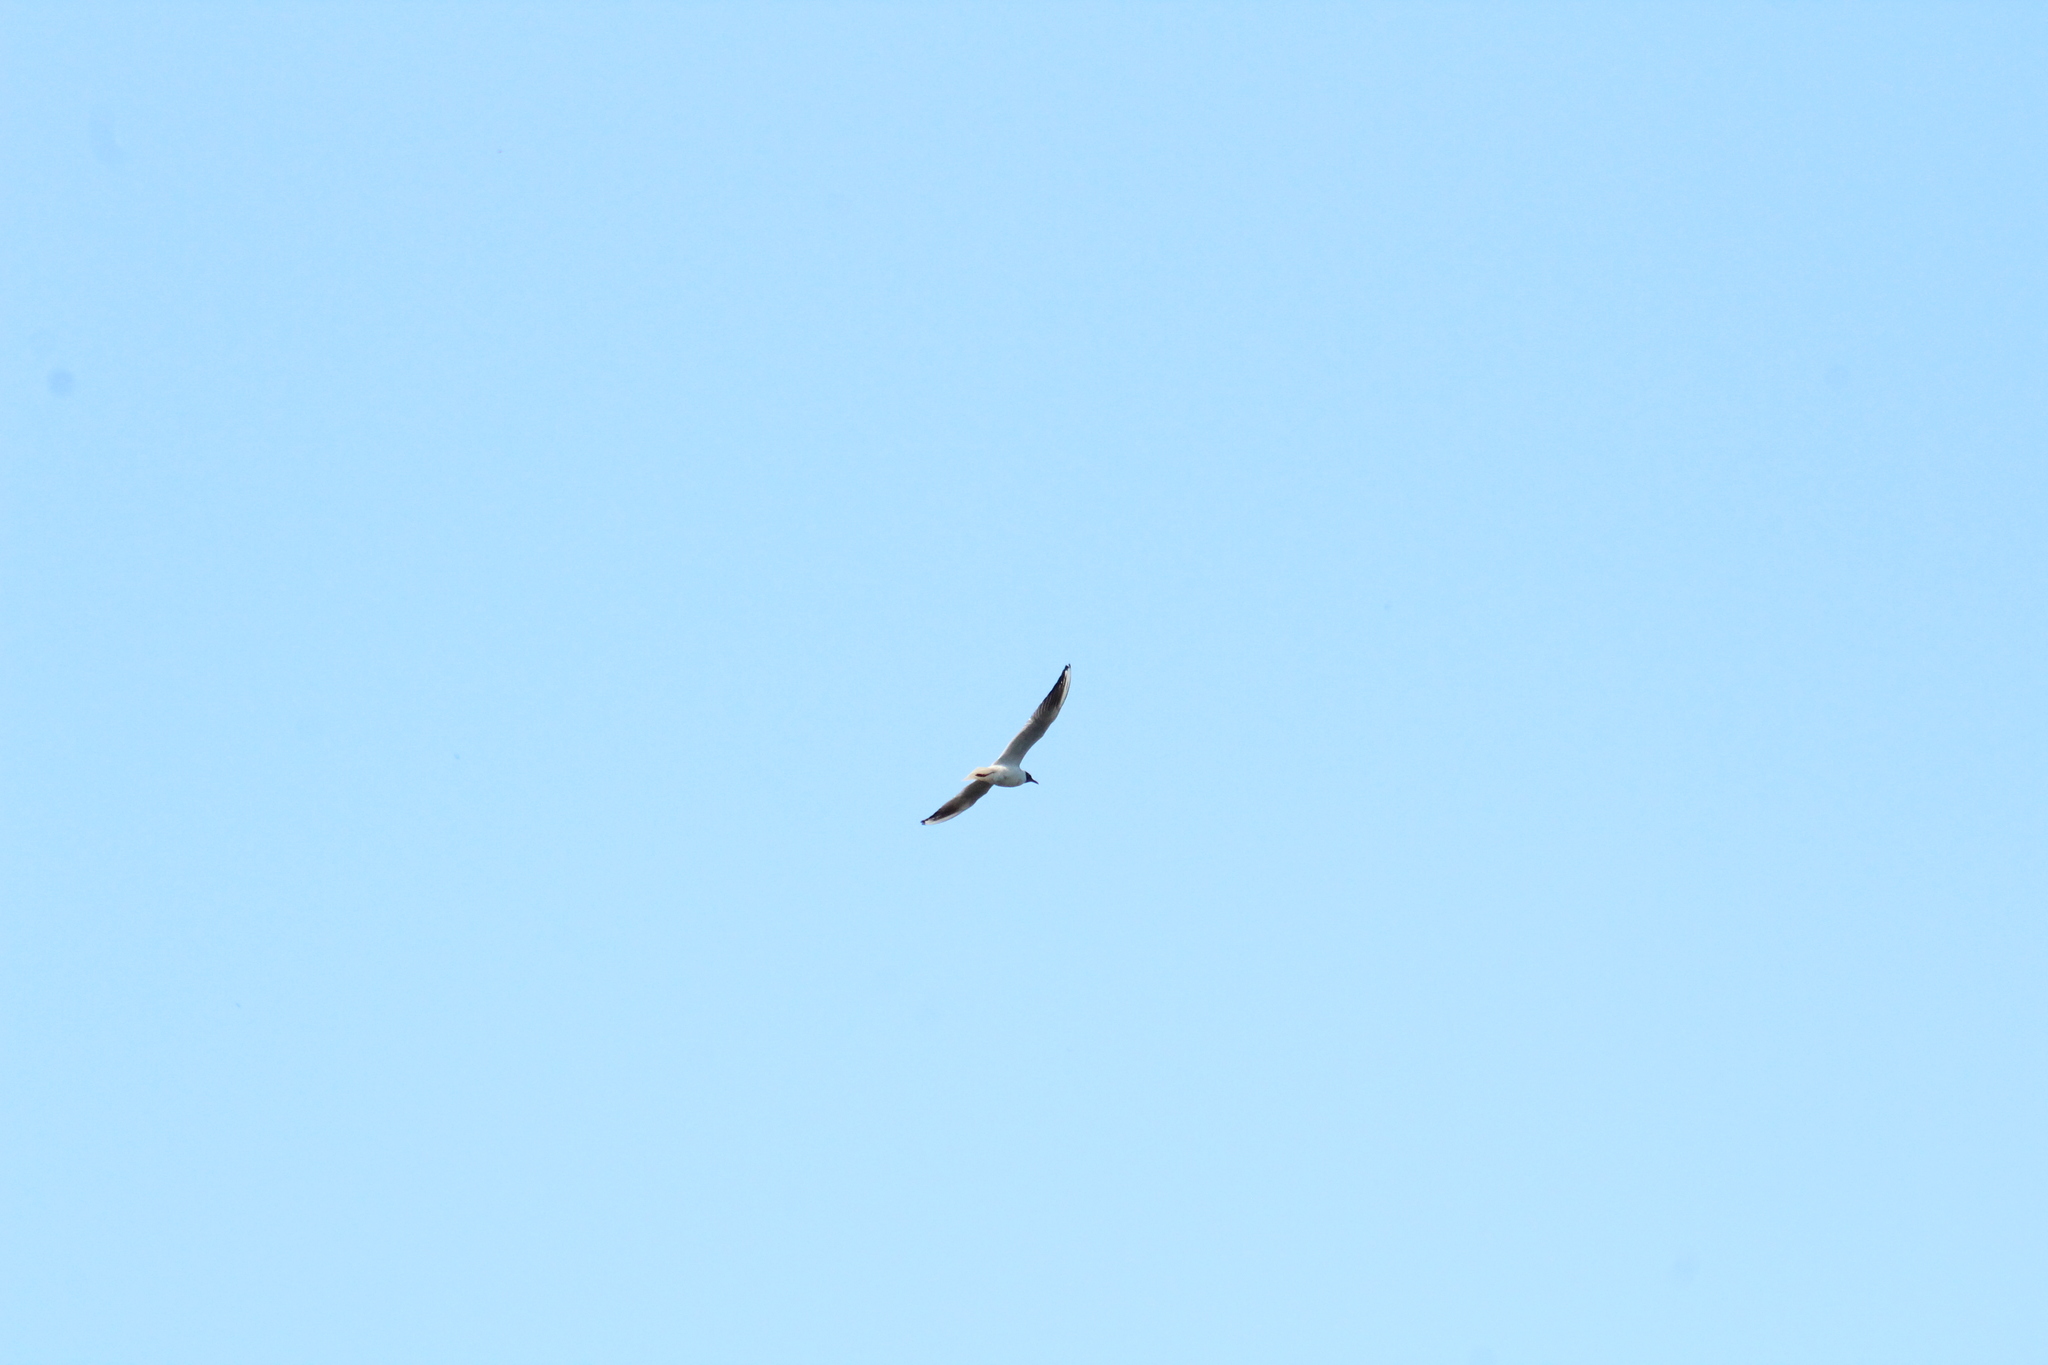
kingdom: Animalia
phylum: Chordata
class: Aves
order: Charadriiformes
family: Laridae
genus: Chroicocephalus
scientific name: Chroicocephalus ridibundus
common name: Black-headed gull
